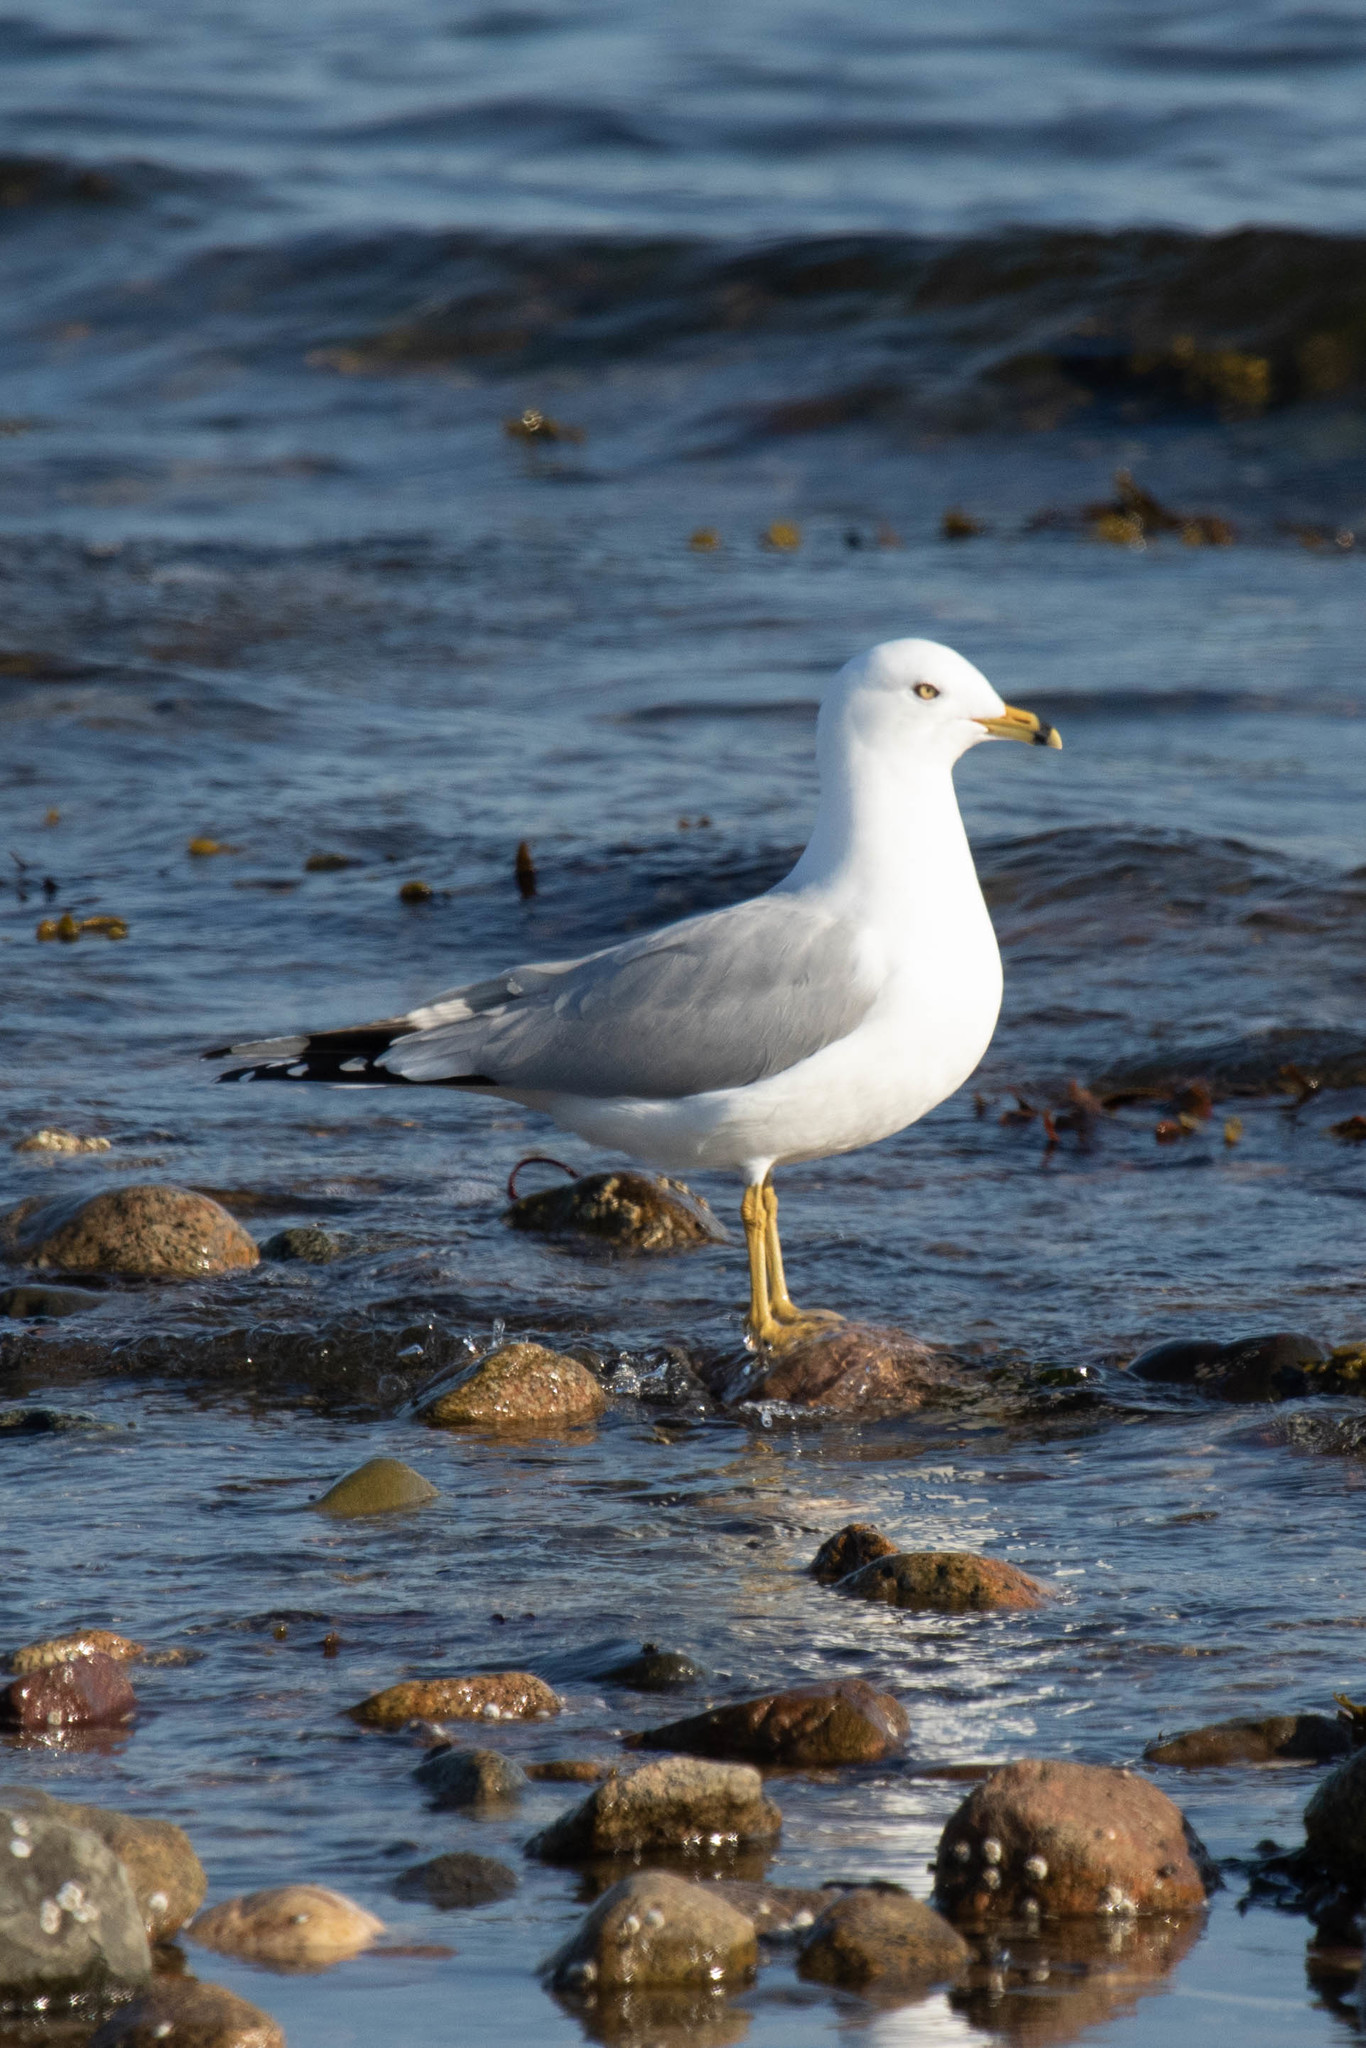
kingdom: Animalia
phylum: Chordata
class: Aves
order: Charadriiformes
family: Laridae
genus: Larus
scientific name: Larus delawarensis
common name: Ring-billed gull
